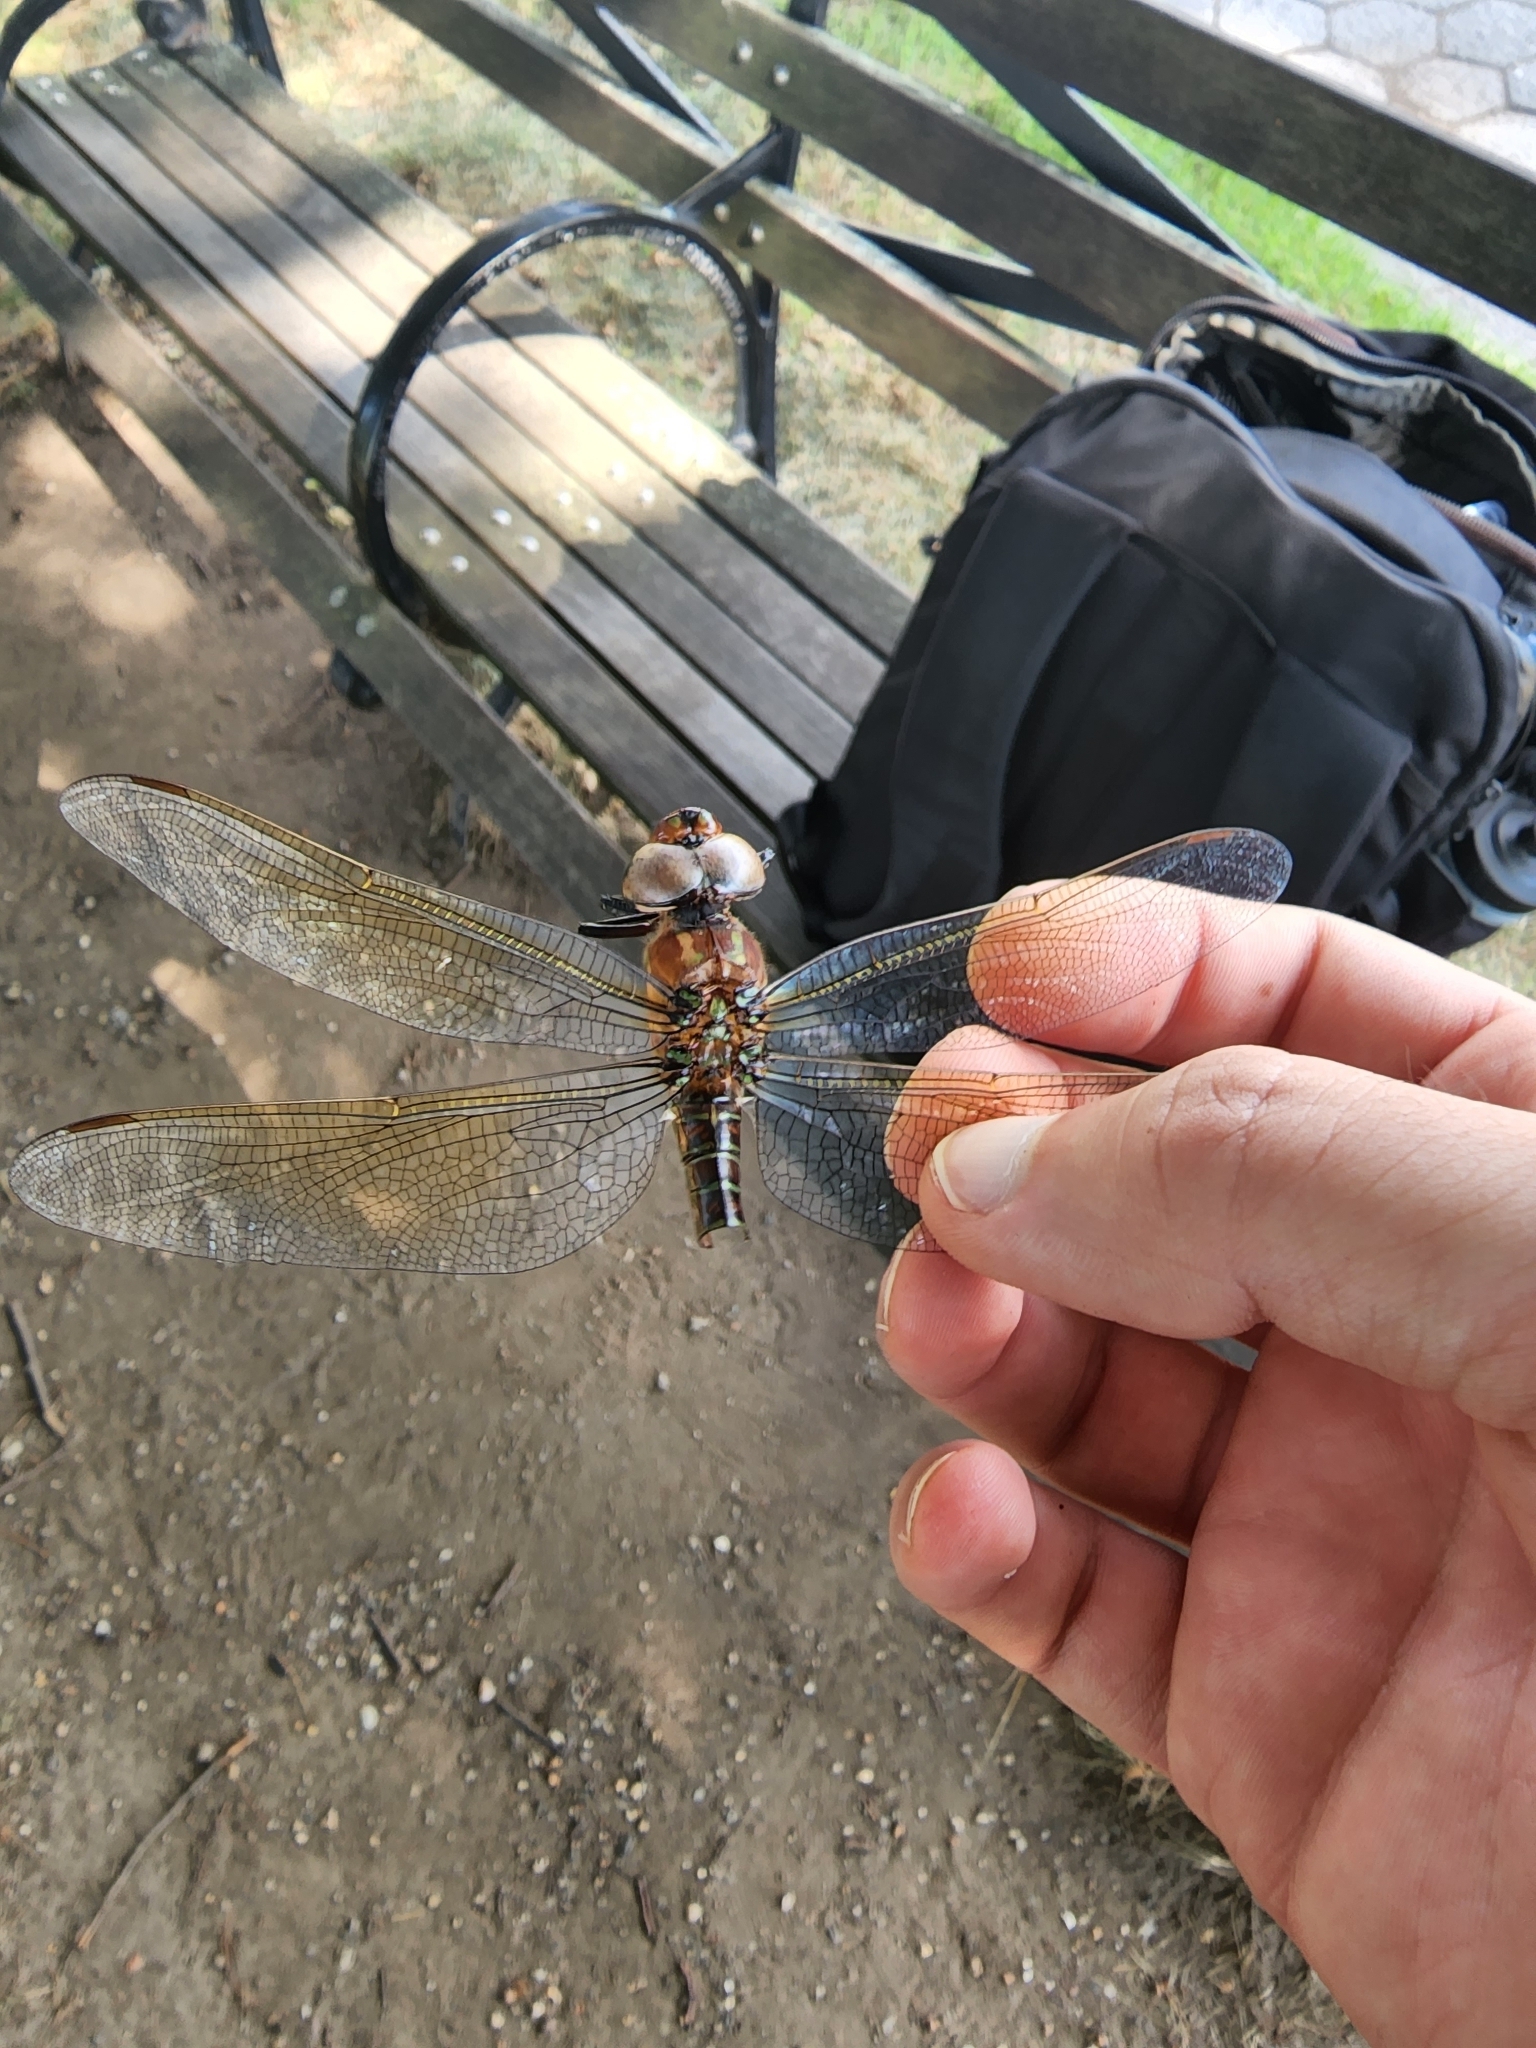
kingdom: Animalia
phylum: Arthropoda
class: Insecta
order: Odonata
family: Aeshnidae
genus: Epiaeschna
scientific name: Epiaeschna heros
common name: Swamp darner
